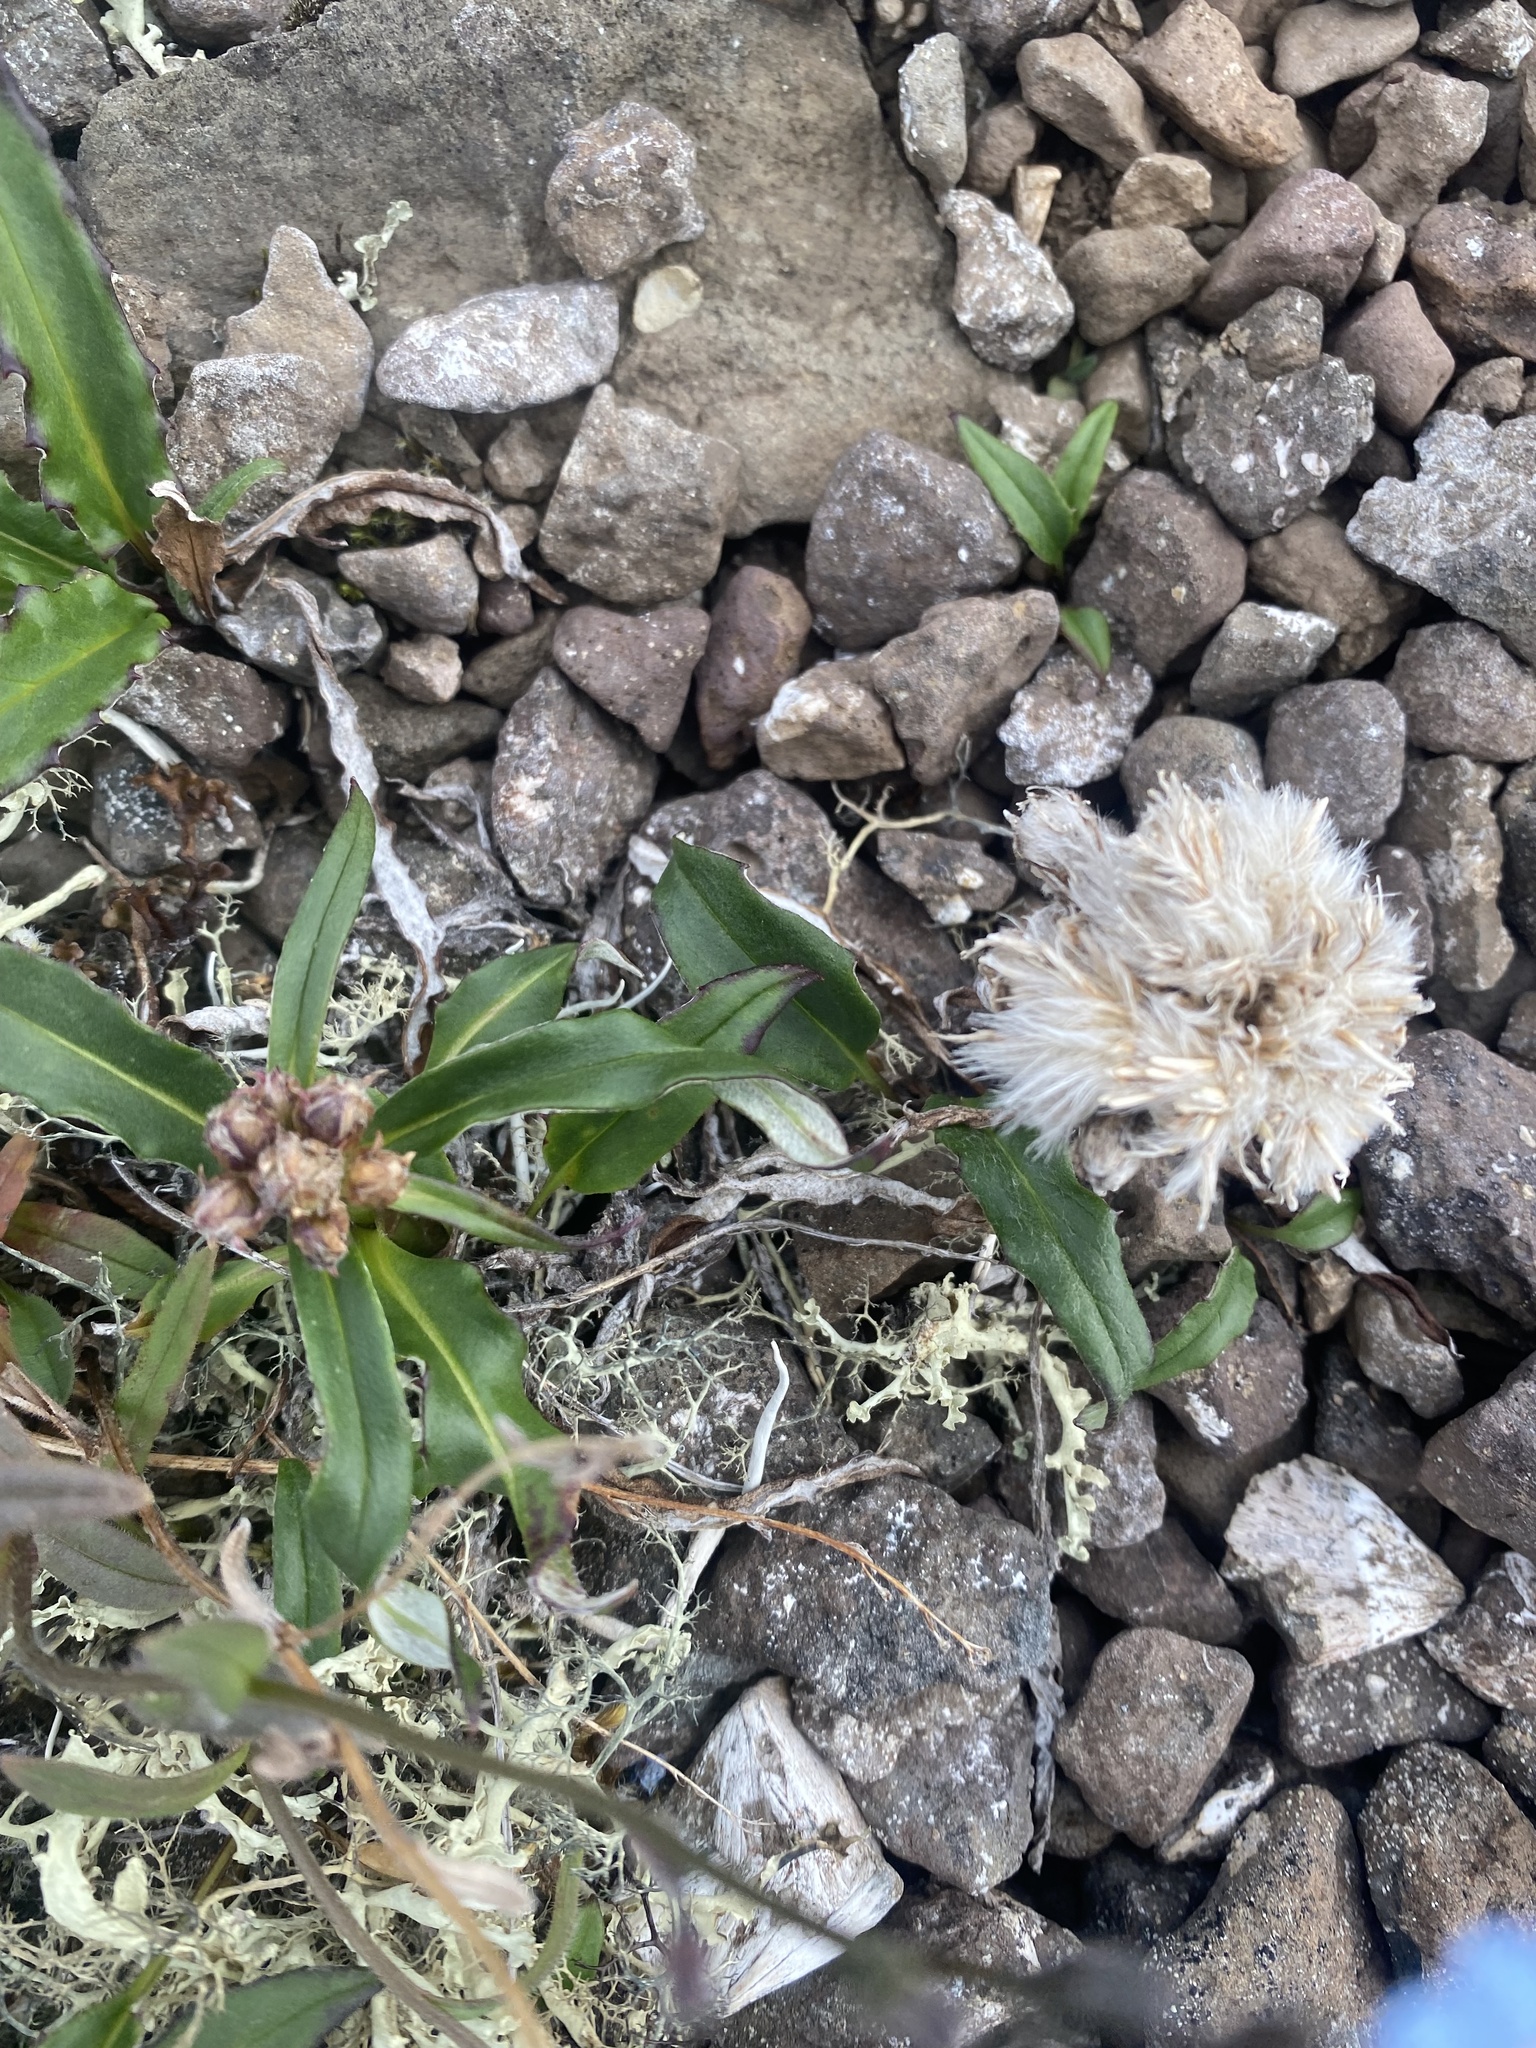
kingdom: Plantae
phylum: Tracheophyta
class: Magnoliopsida
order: Asterales
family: Asteraceae
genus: Saussurea
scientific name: Saussurea tilesii
